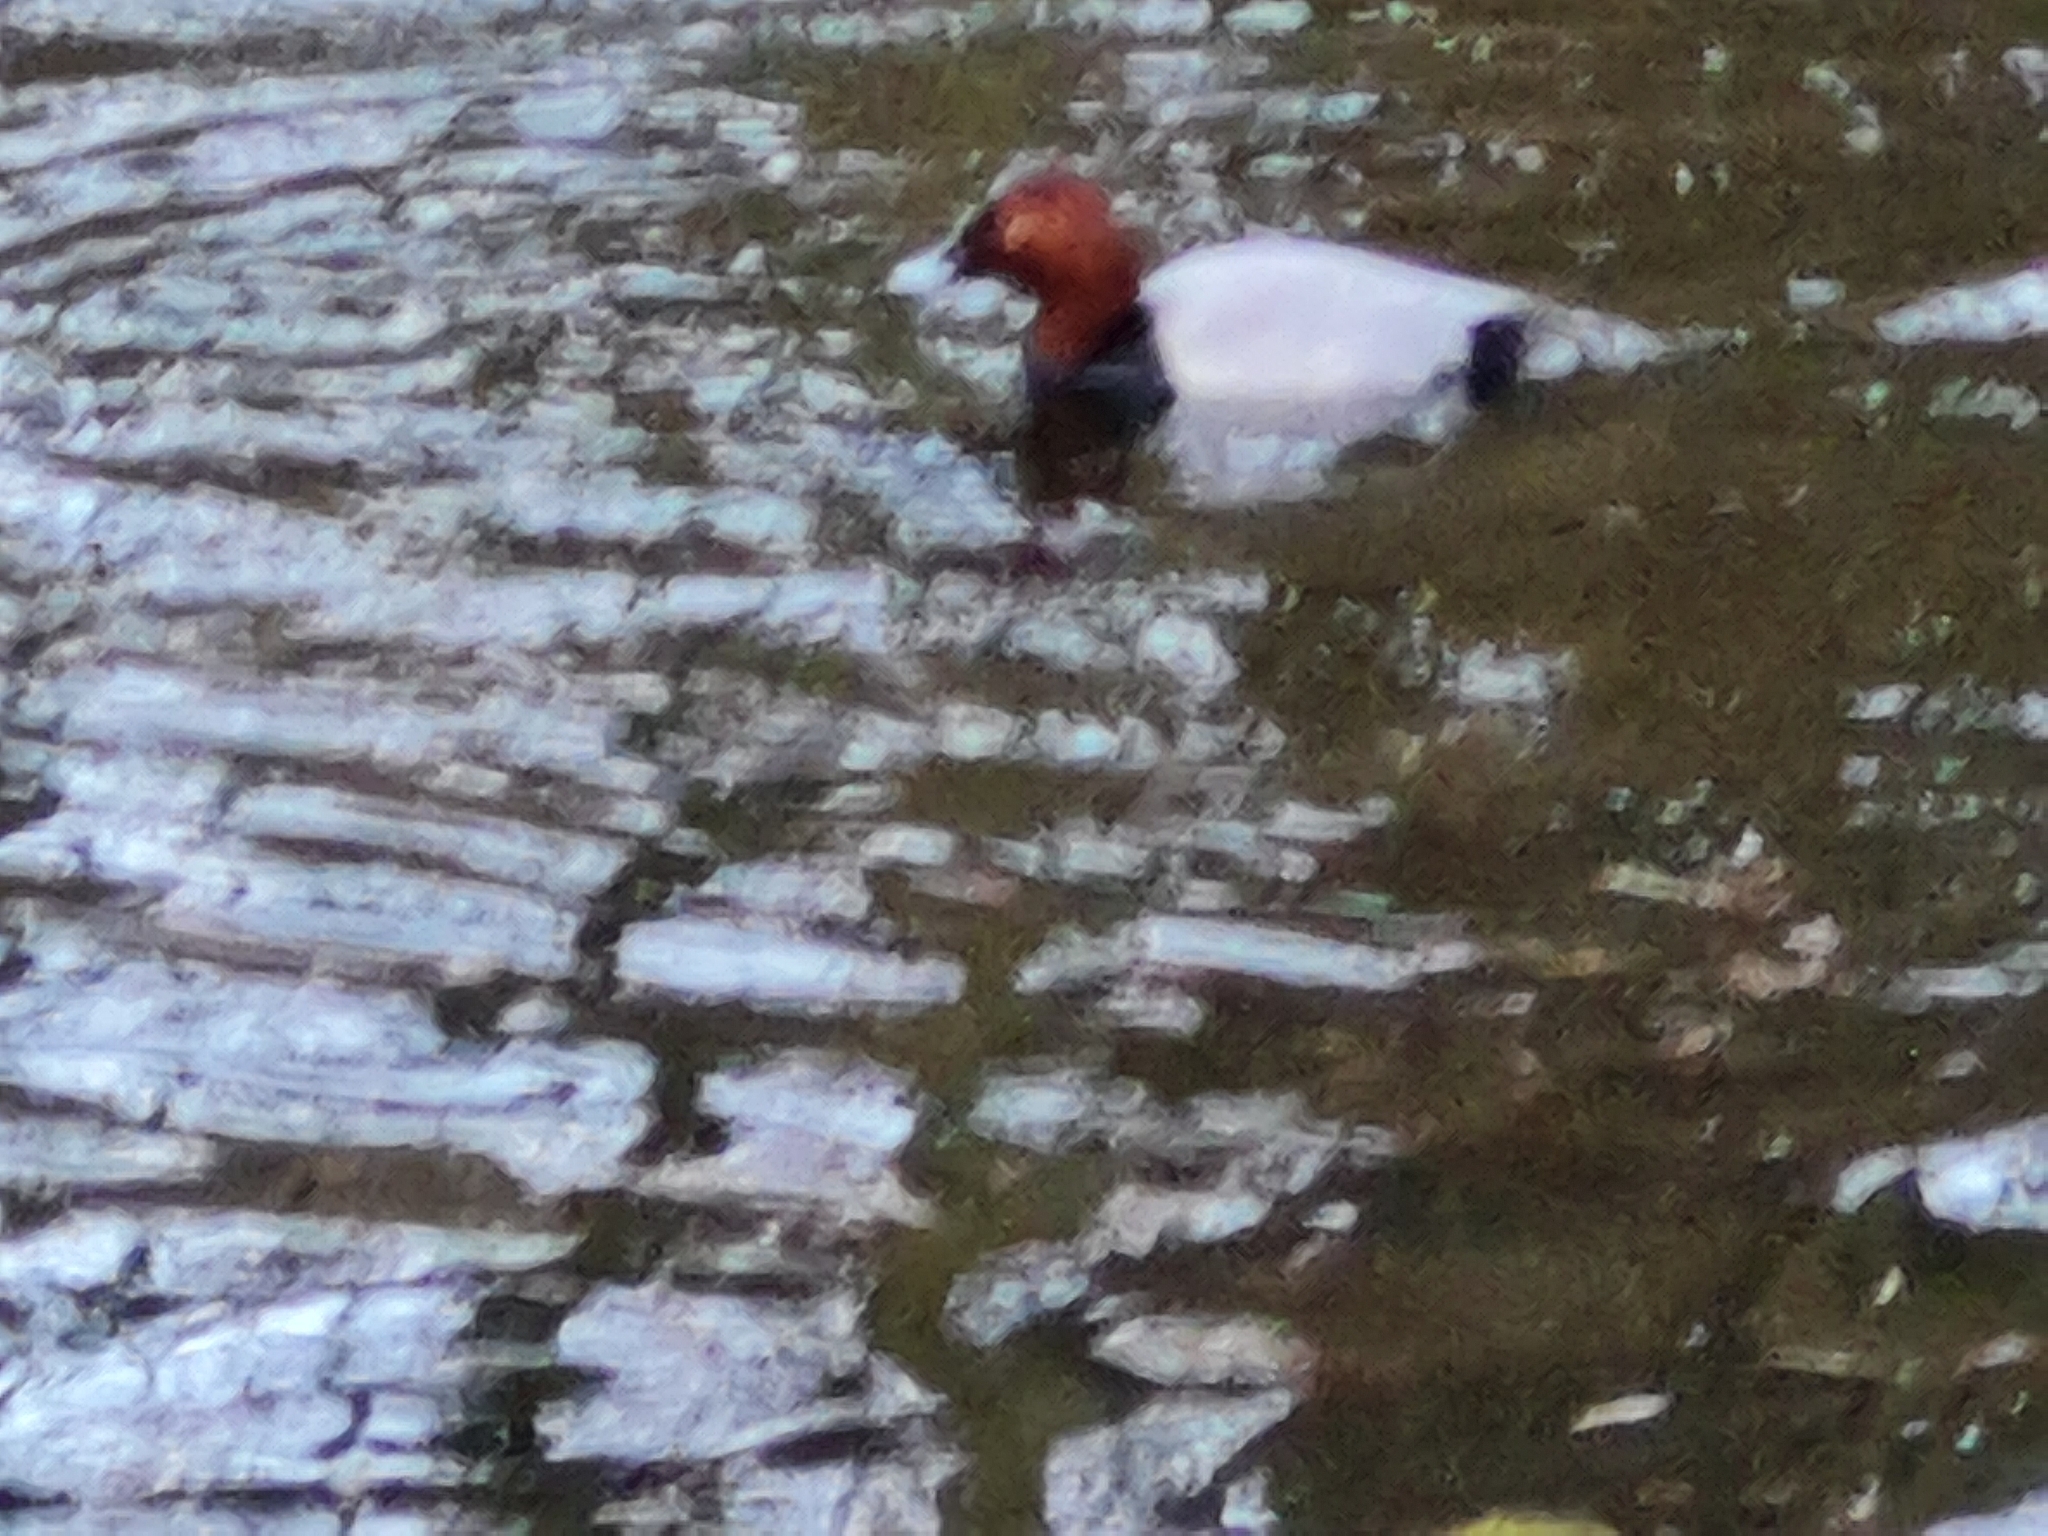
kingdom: Animalia
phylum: Chordata
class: Aves
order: Anseriformes
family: Anatidae
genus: Aythya
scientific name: Aythya ferina
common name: Common pochard
